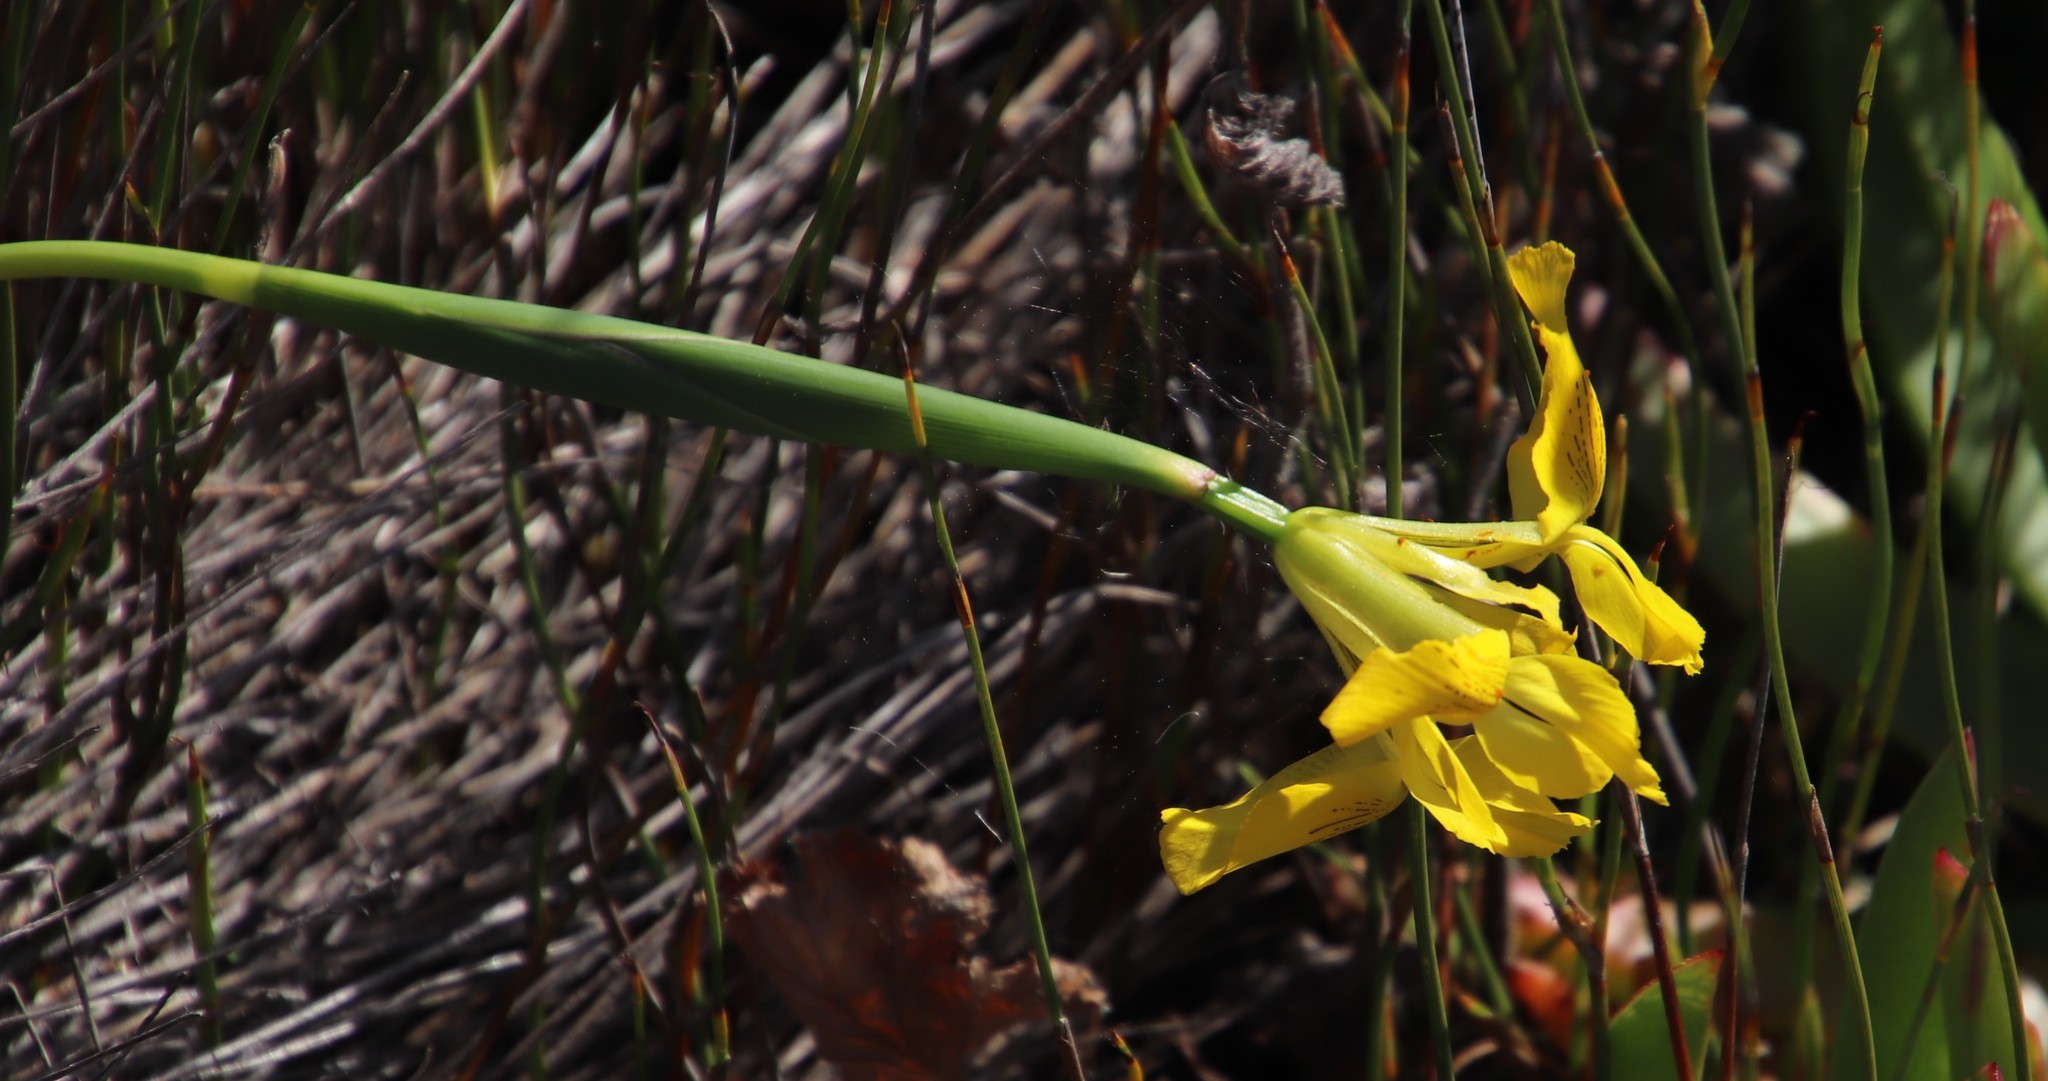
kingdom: Plantae
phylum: Tracheophyta
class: Liliopsida
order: Asparagales
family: Iridaceae
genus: Moraea
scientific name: Moraea neglecta
